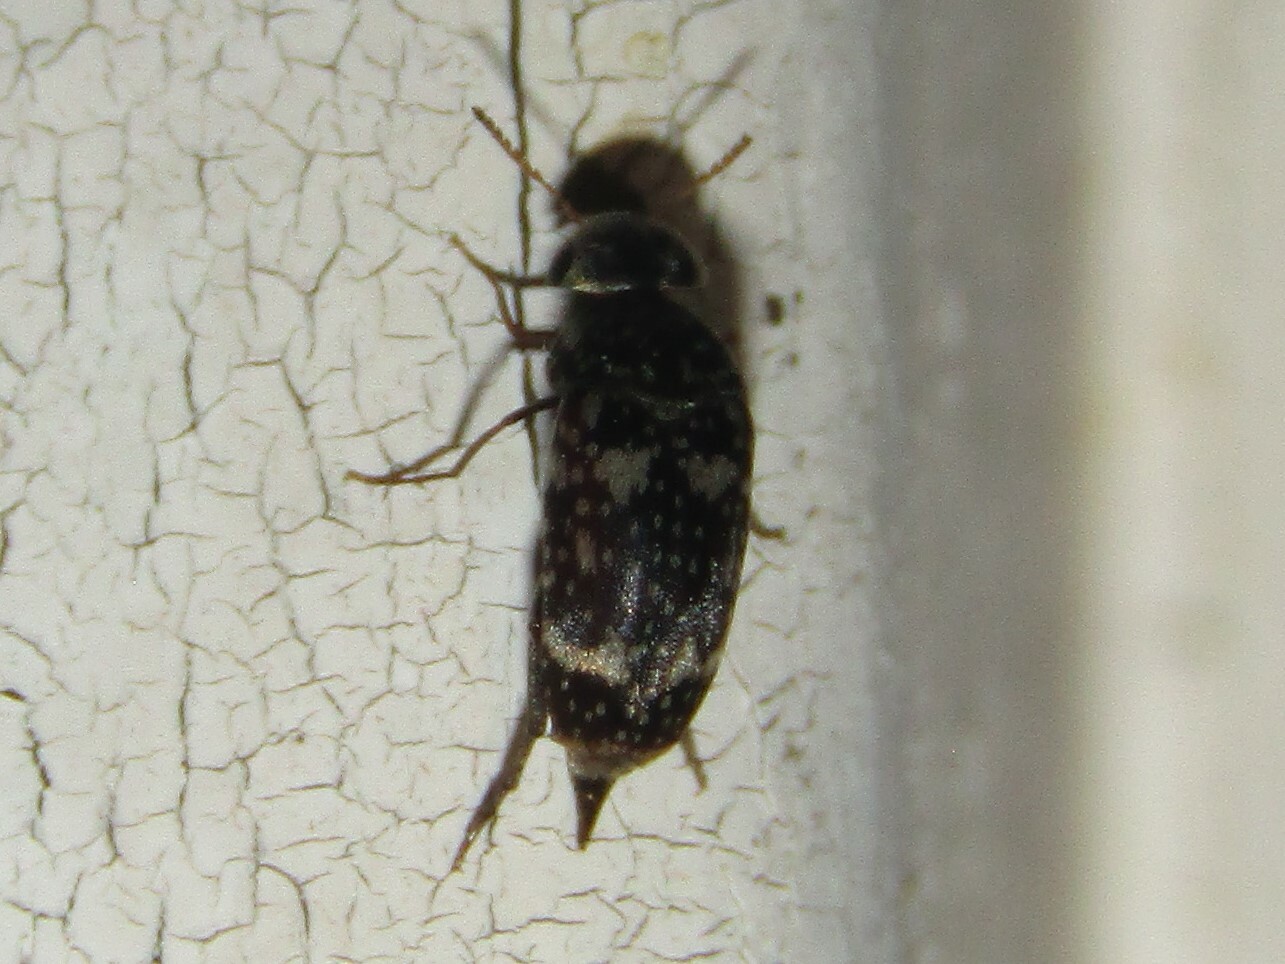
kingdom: Animalia
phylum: Arthropoda
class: Insecta
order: Coleoptera
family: Mordellidae
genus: Mordellaria
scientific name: Mordellaria serval
